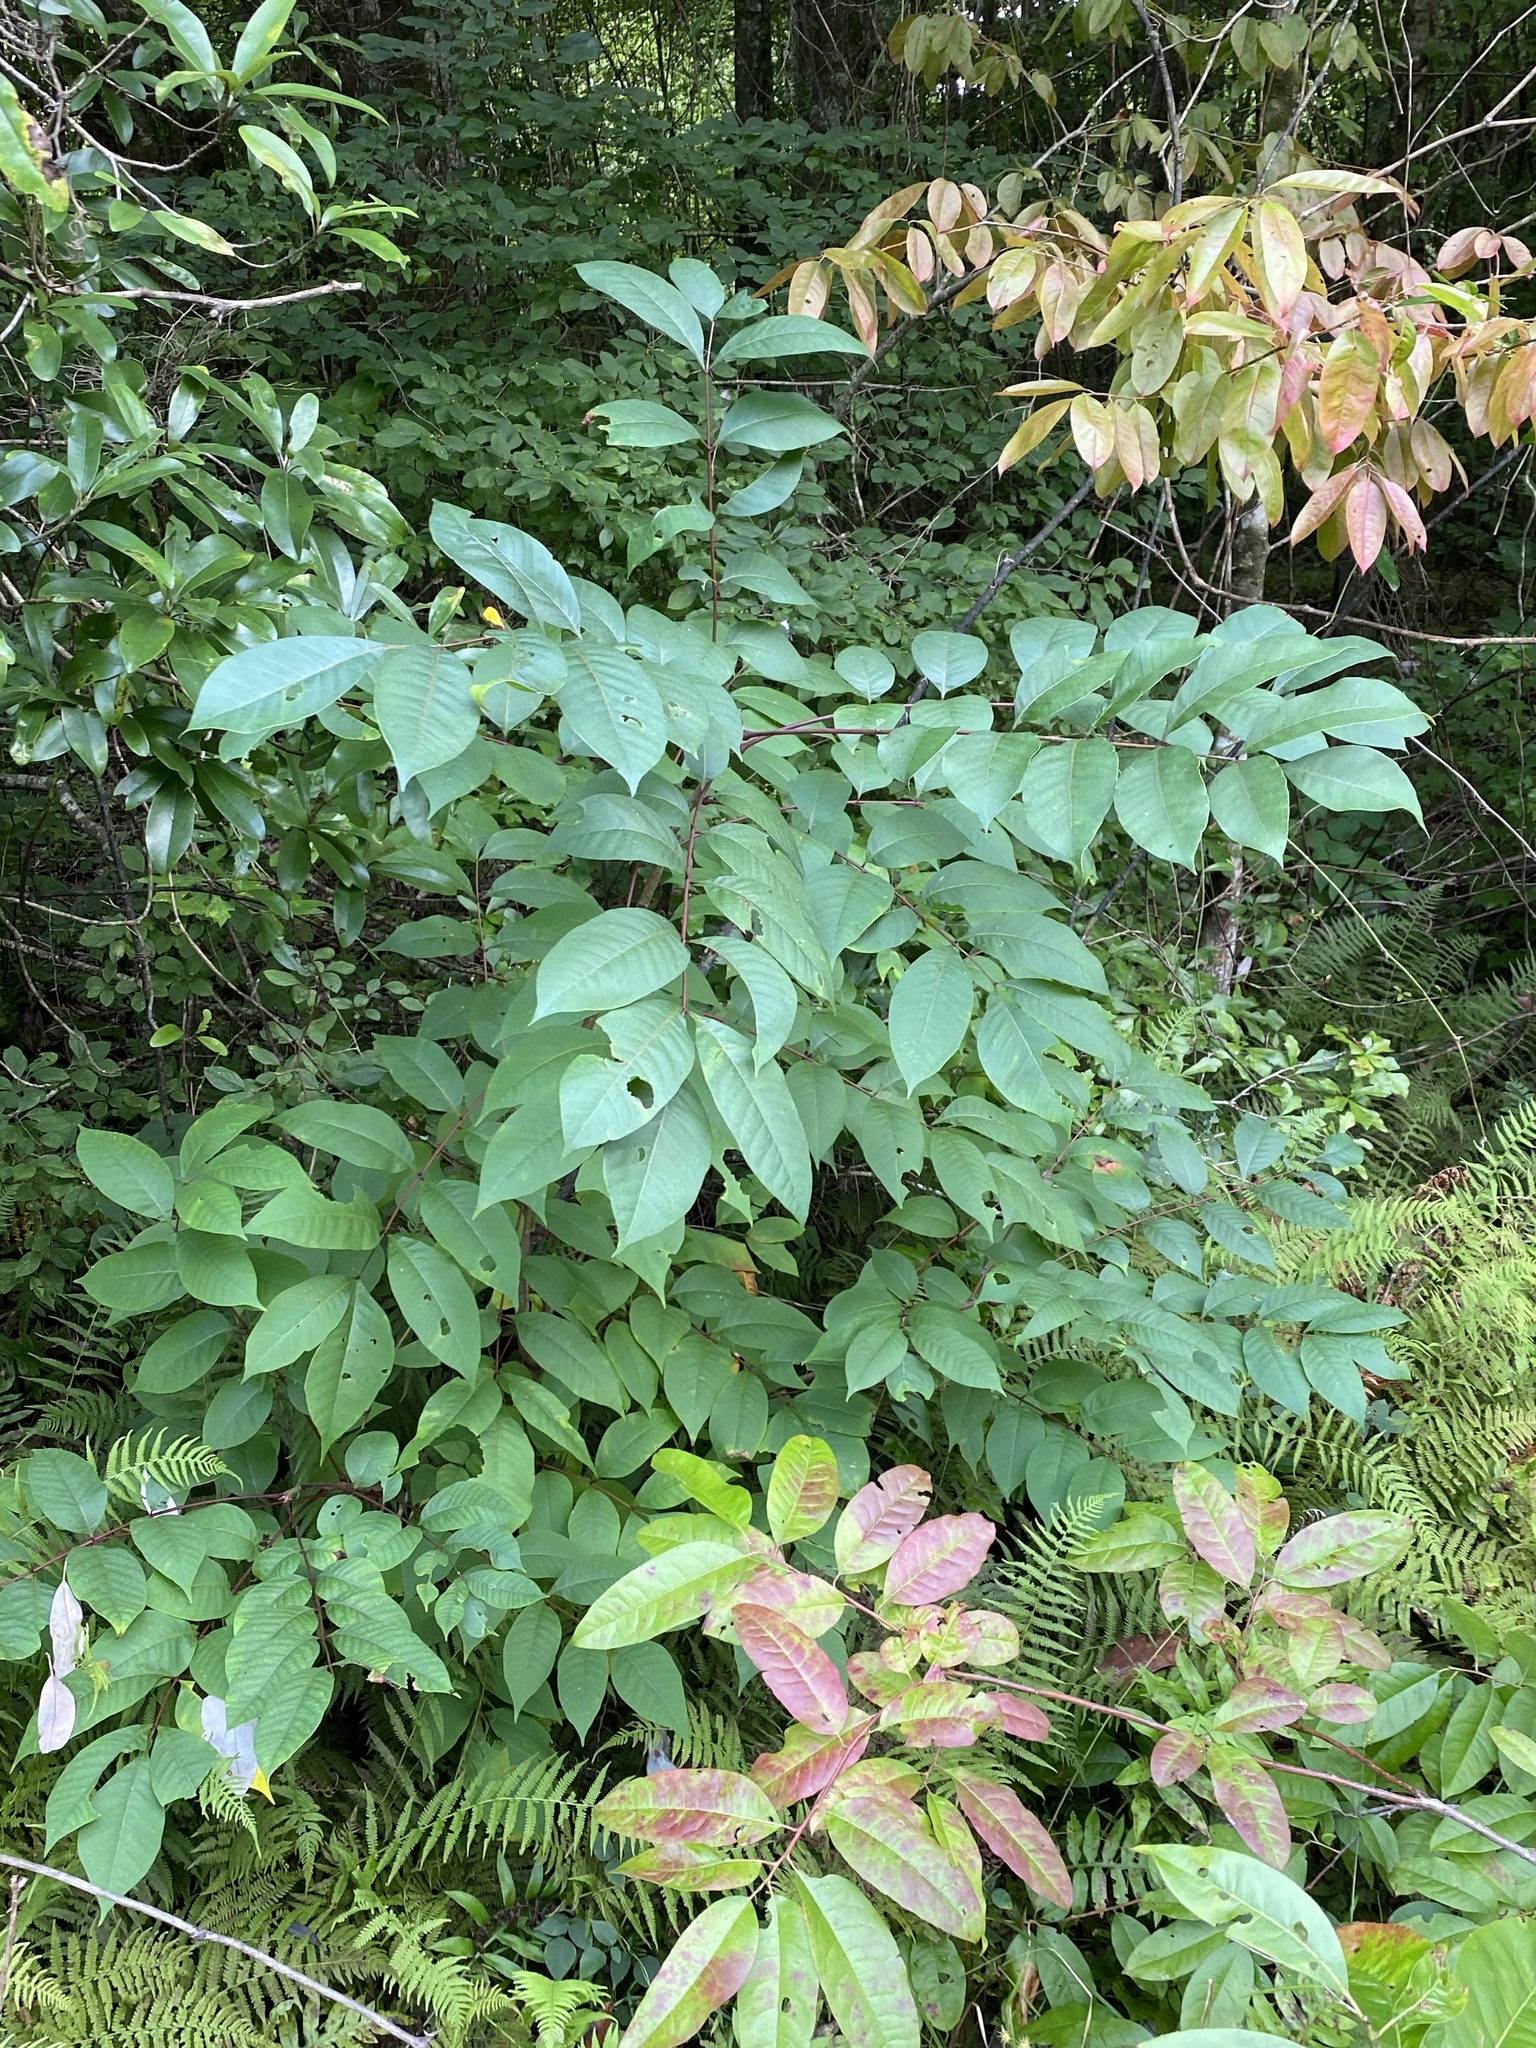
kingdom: Plantae
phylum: Tracheophyta
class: Magnoliopsida
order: Sapindales
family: Anacardiaceae
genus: Toxicodendron
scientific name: Toxicodendron vernix
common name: Poison sumac
